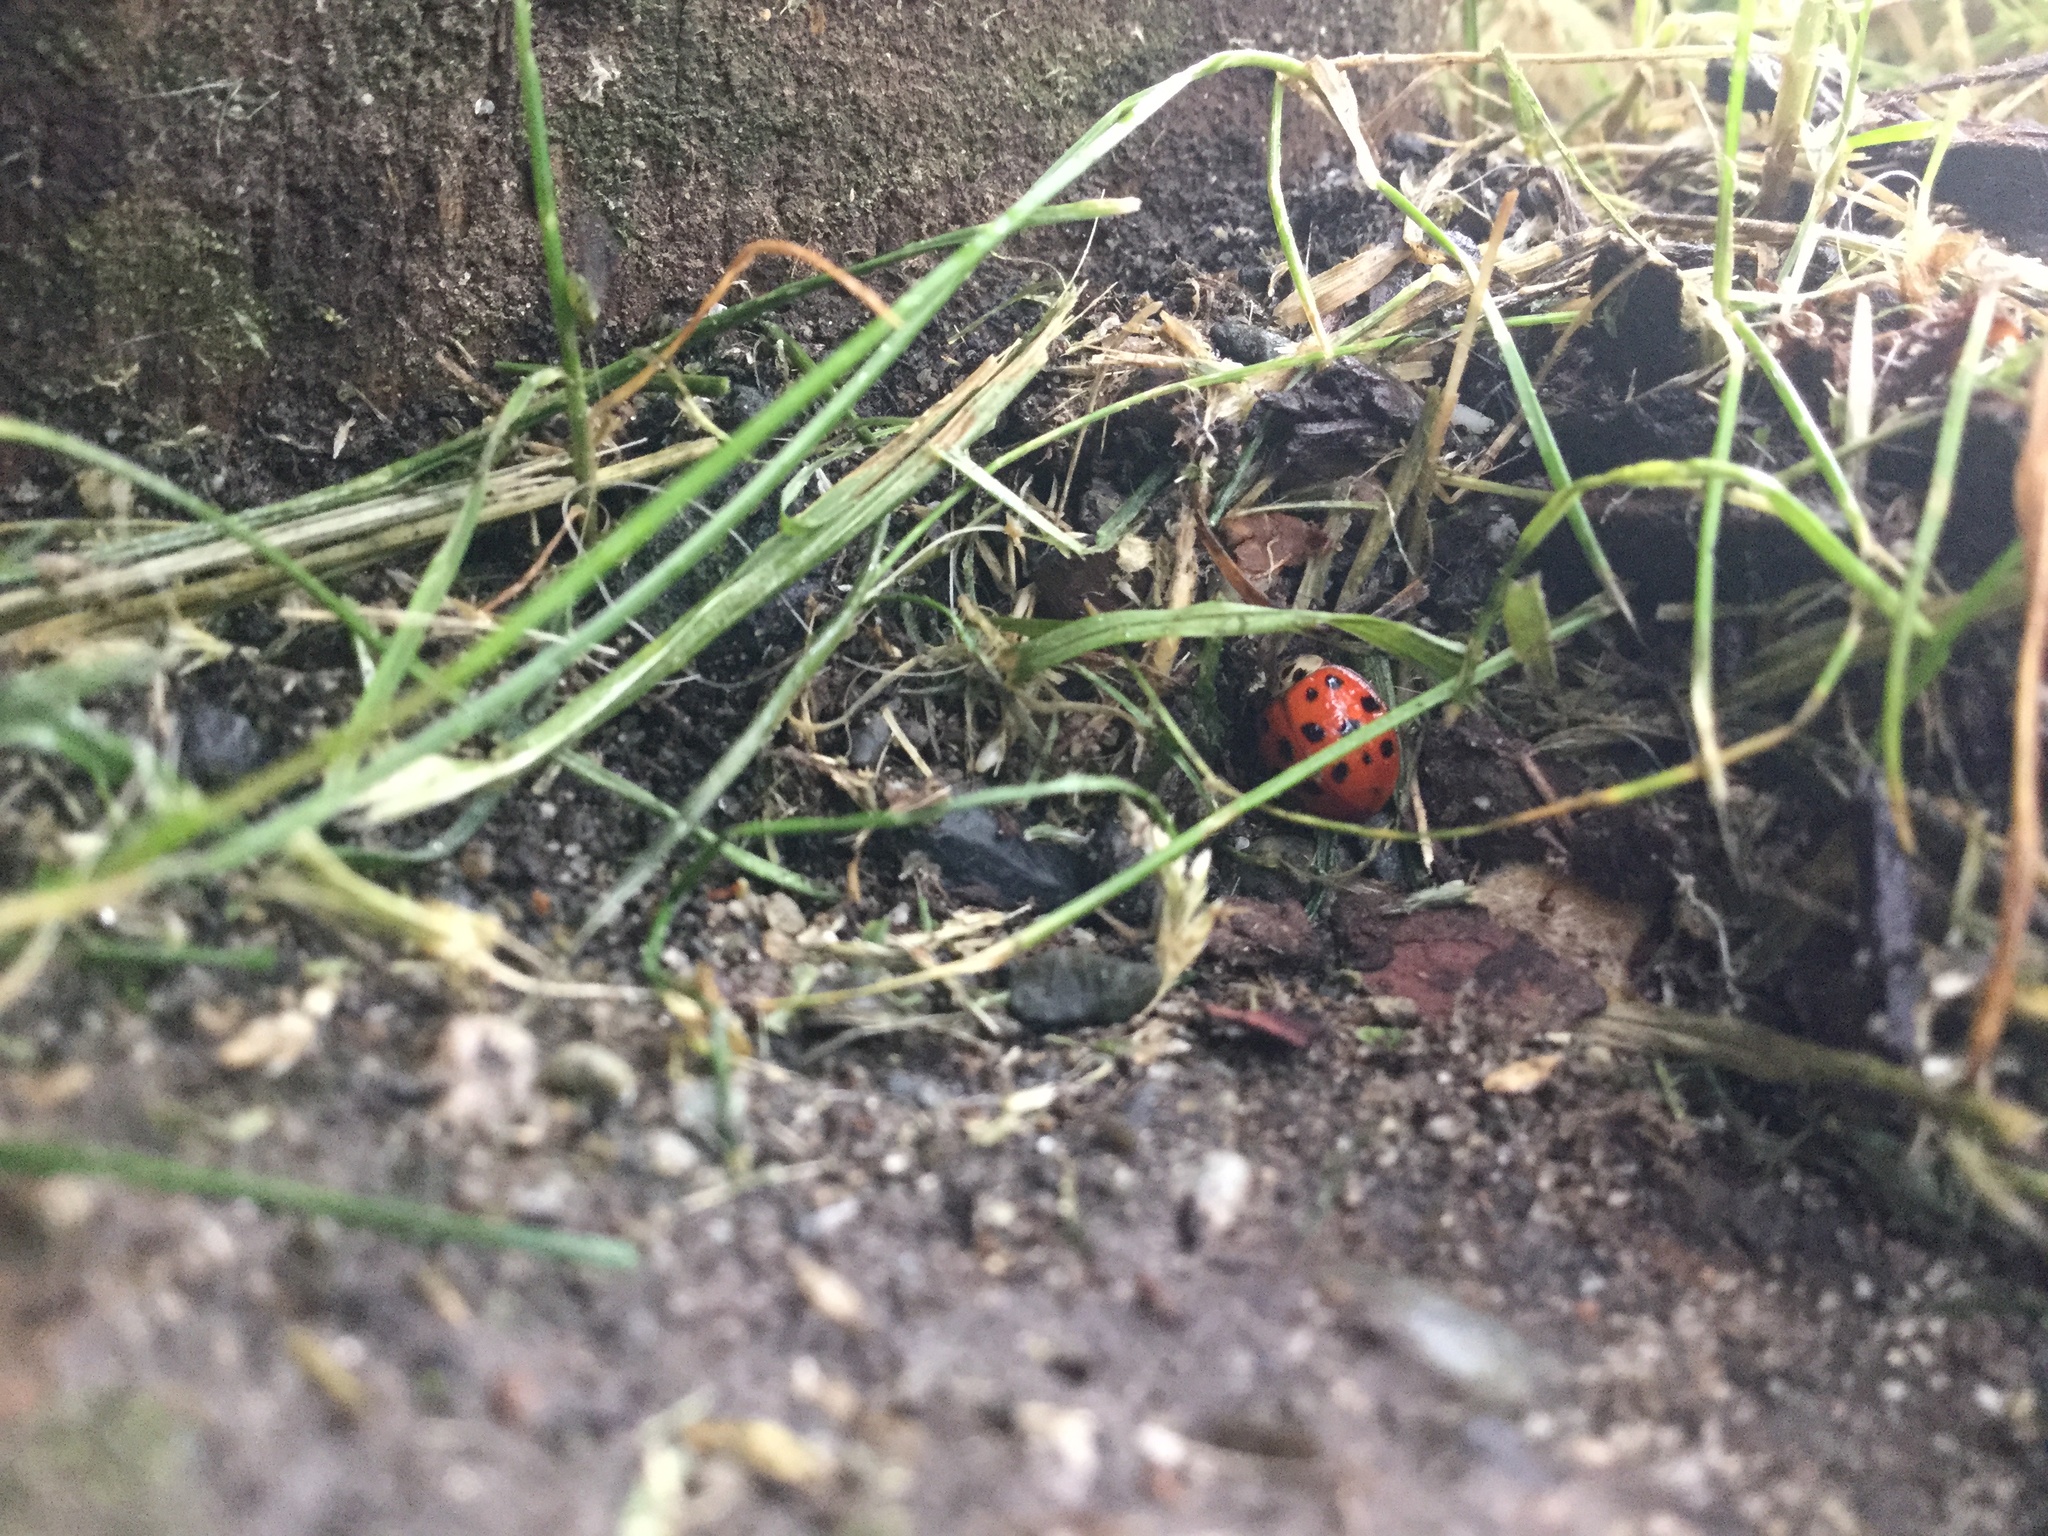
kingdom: Animalia
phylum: Arthropoda
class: Insecta
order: Coleoptera
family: Coccinellidae
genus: Harmonia
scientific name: Harmonia axyridis
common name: Harlequin ladybird
